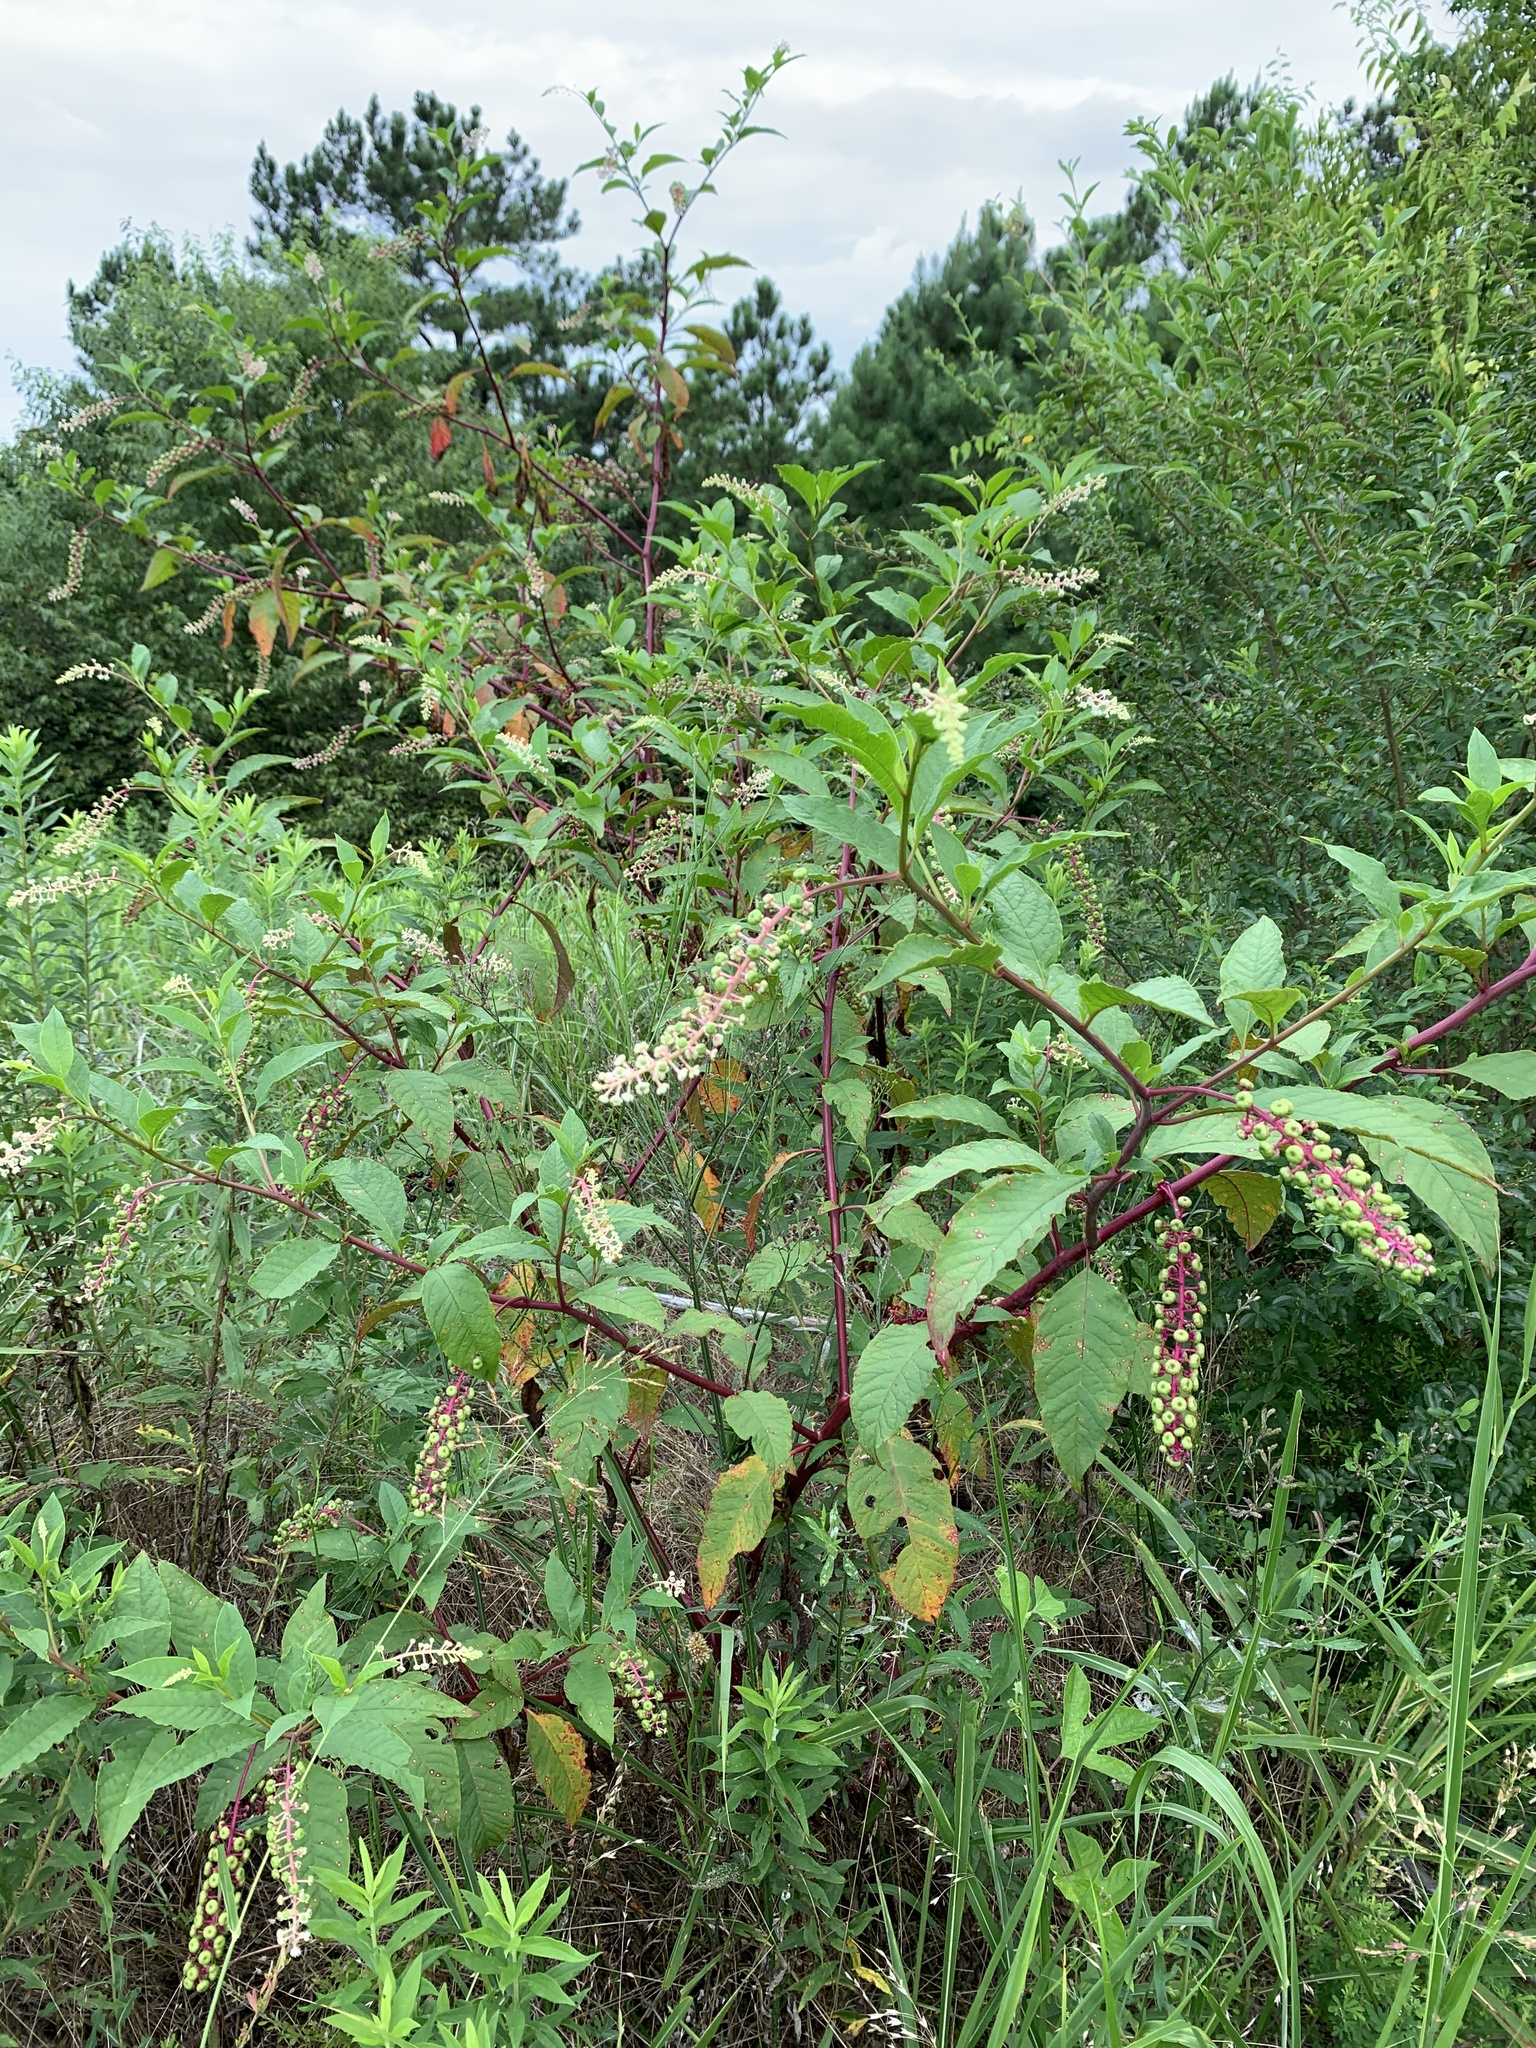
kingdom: Plantae
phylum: Tracheophyta
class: Magnoliopsida
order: Caryophyllales
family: Phytolaccaceae
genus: Phytolacca
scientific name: Phytolacca americana
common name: American pokeweed
